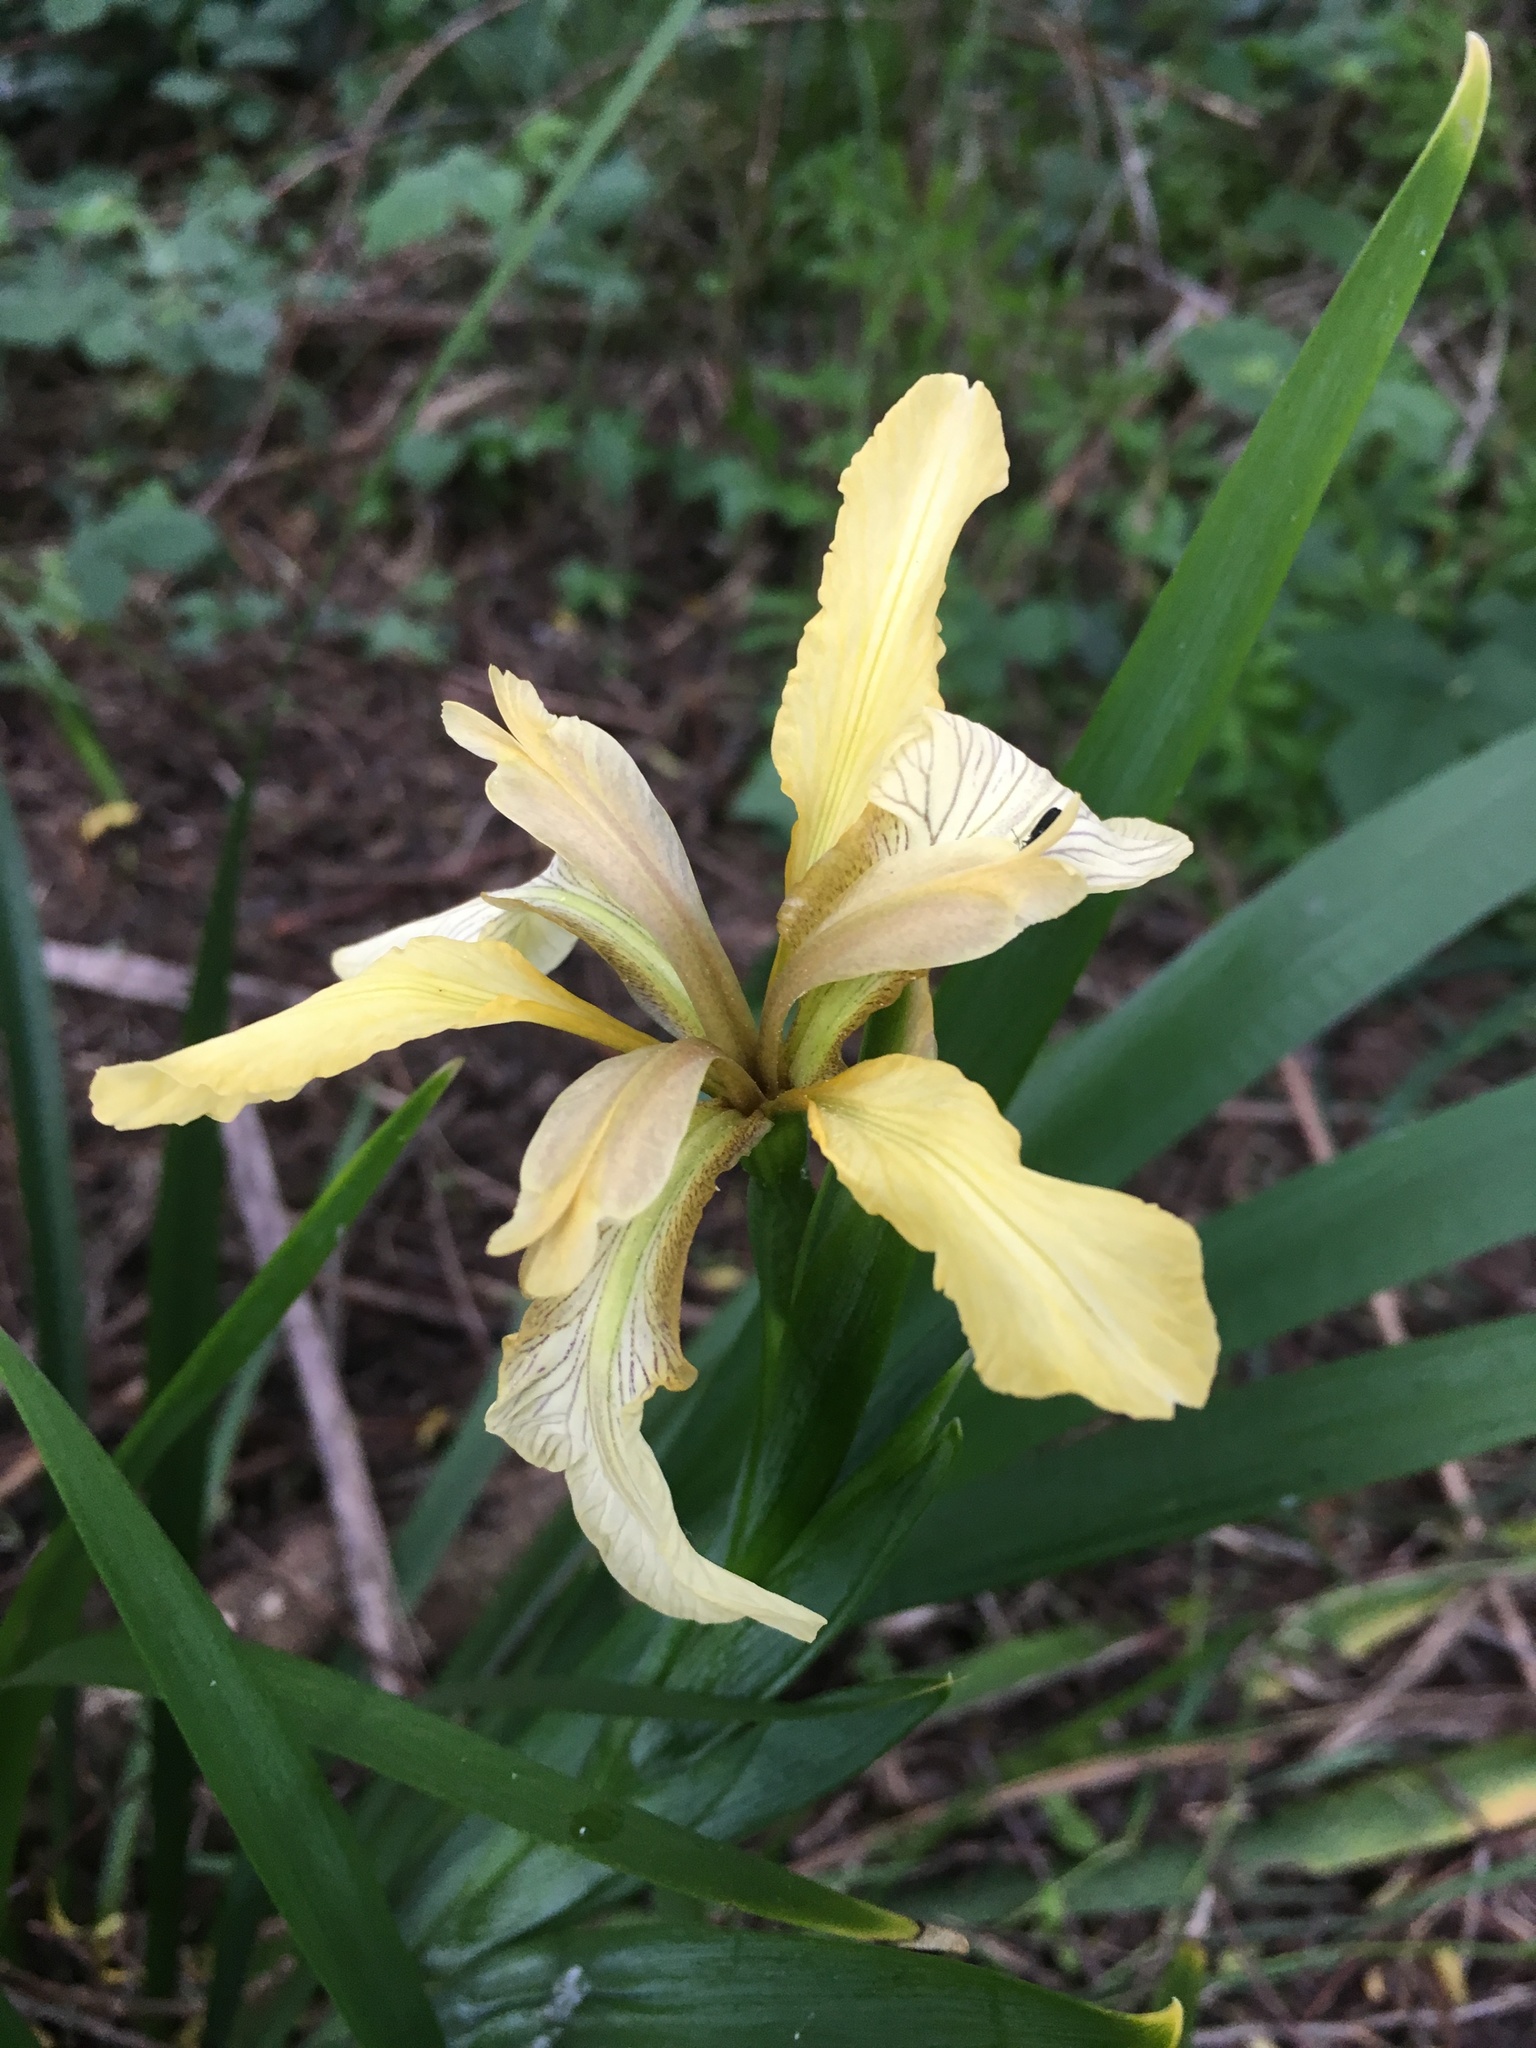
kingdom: Plantae
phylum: Tracheophyta
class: Liliopsida
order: Asparagales
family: Iridaceae
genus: Iris
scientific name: Iris foetidissima
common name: Stinking iris
